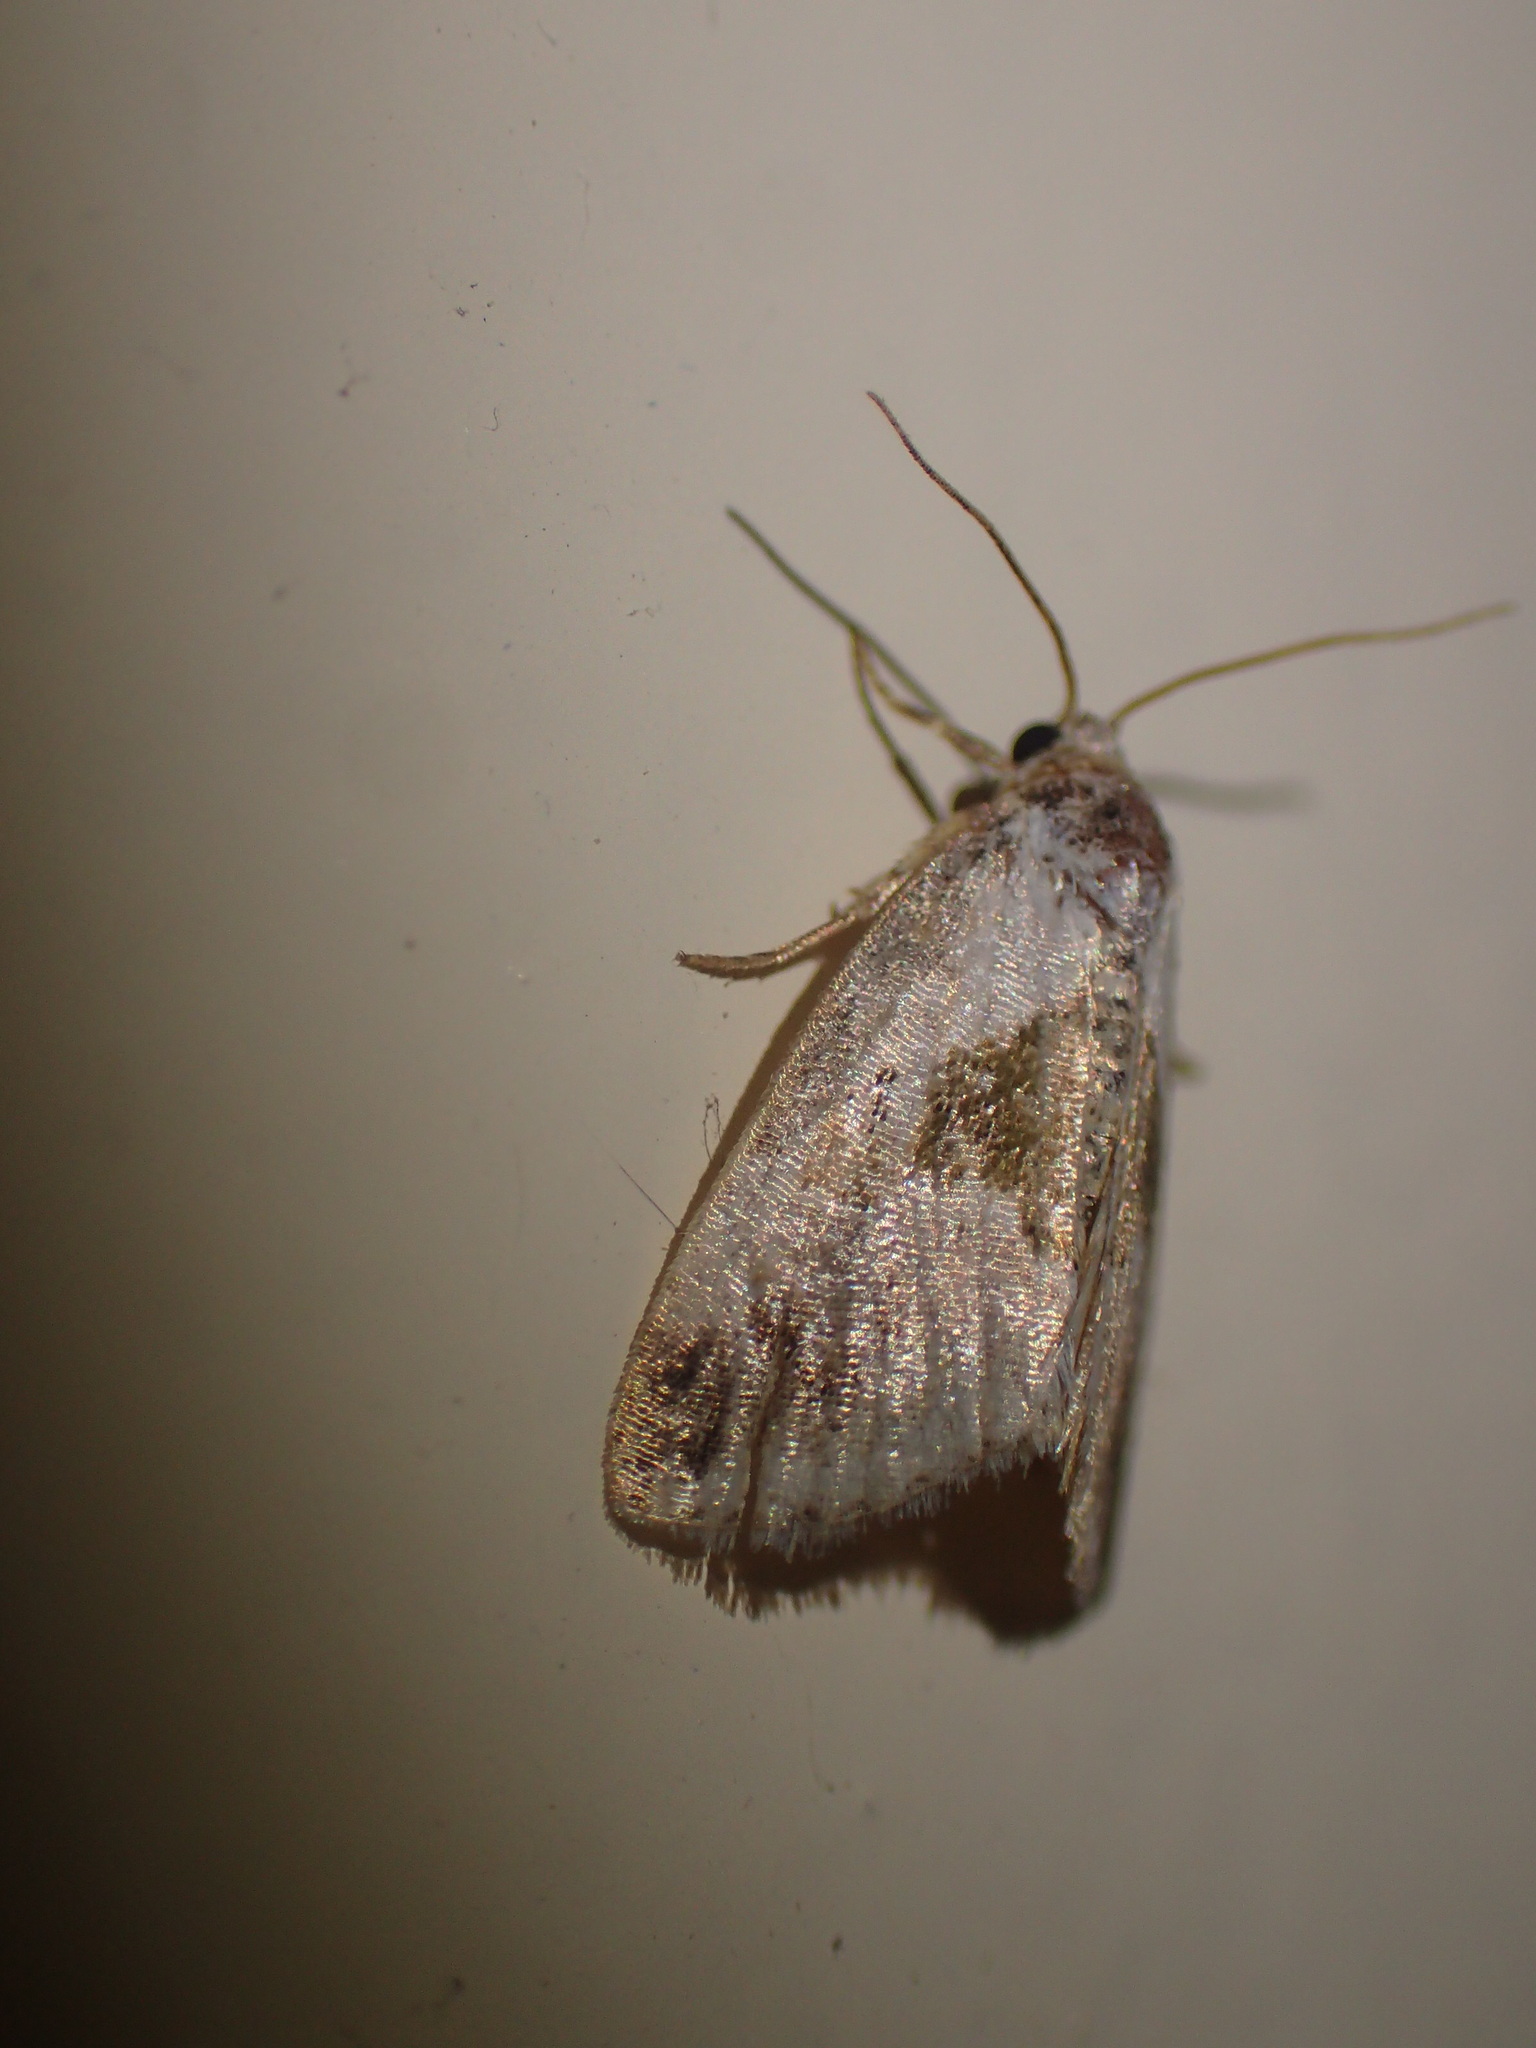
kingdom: Animalia
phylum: Arthropoda
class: Insecta
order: Lepidoptera
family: Noctuidae
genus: Maliattha
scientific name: Maliattha synochitis
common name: Black-dotted glyph
